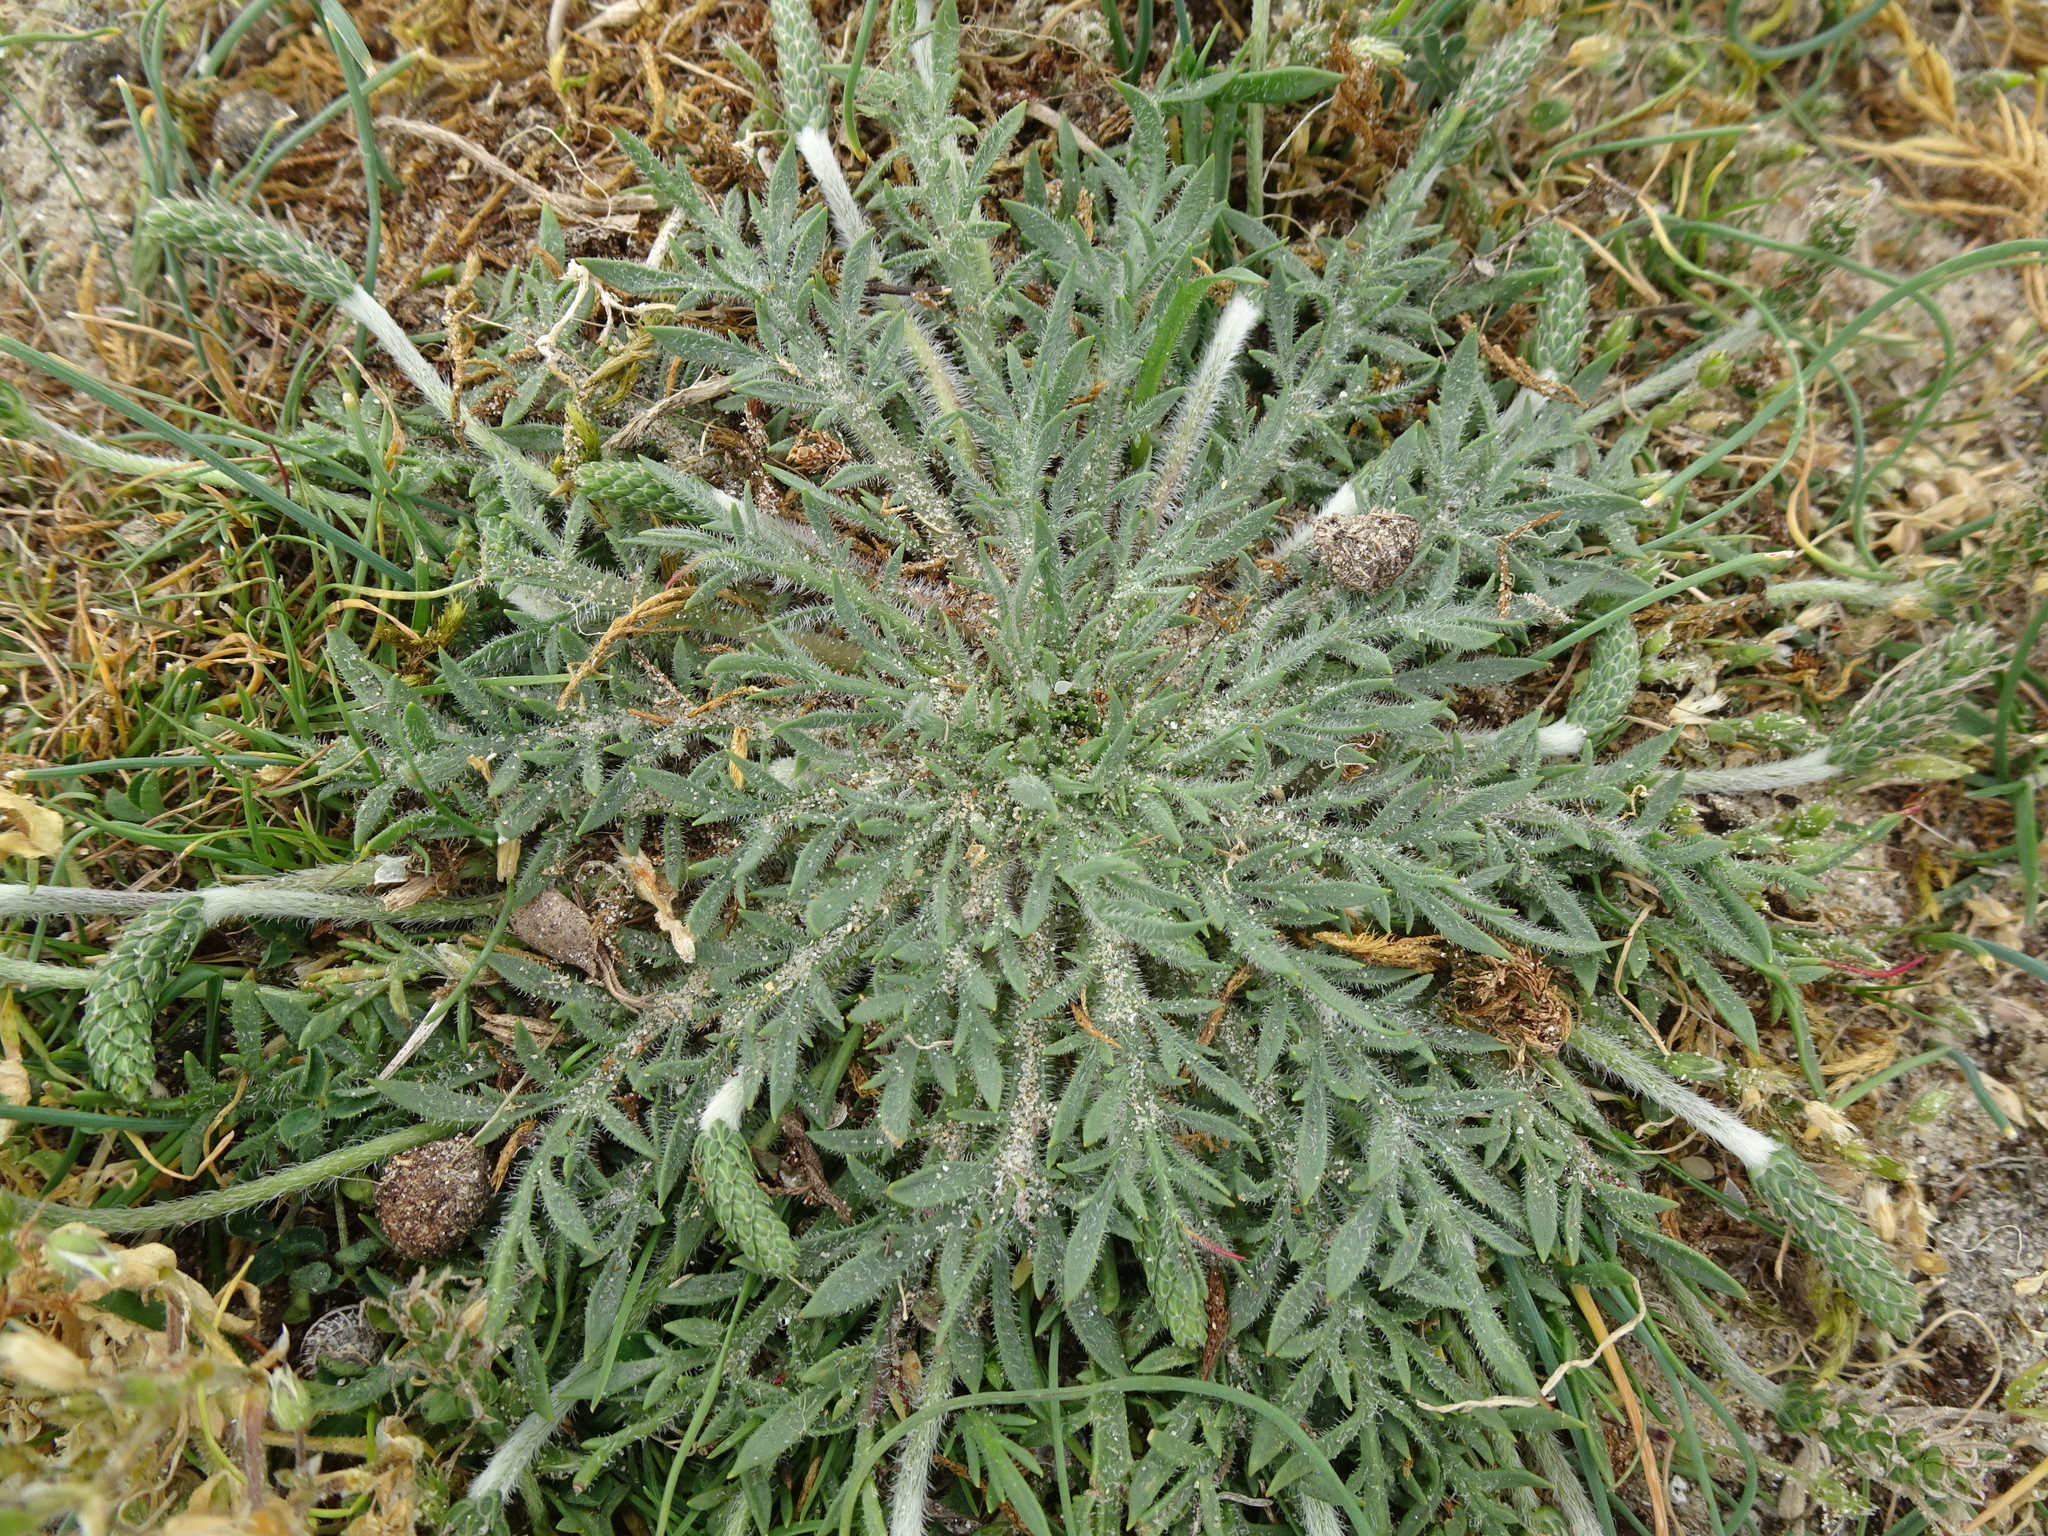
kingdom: Plantae
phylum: Tracheophyta
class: Magnoliopsida
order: Lamiales
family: Plantaginaceae
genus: Plantago
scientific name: Plantago coronopus
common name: Buck's-horn plantain
